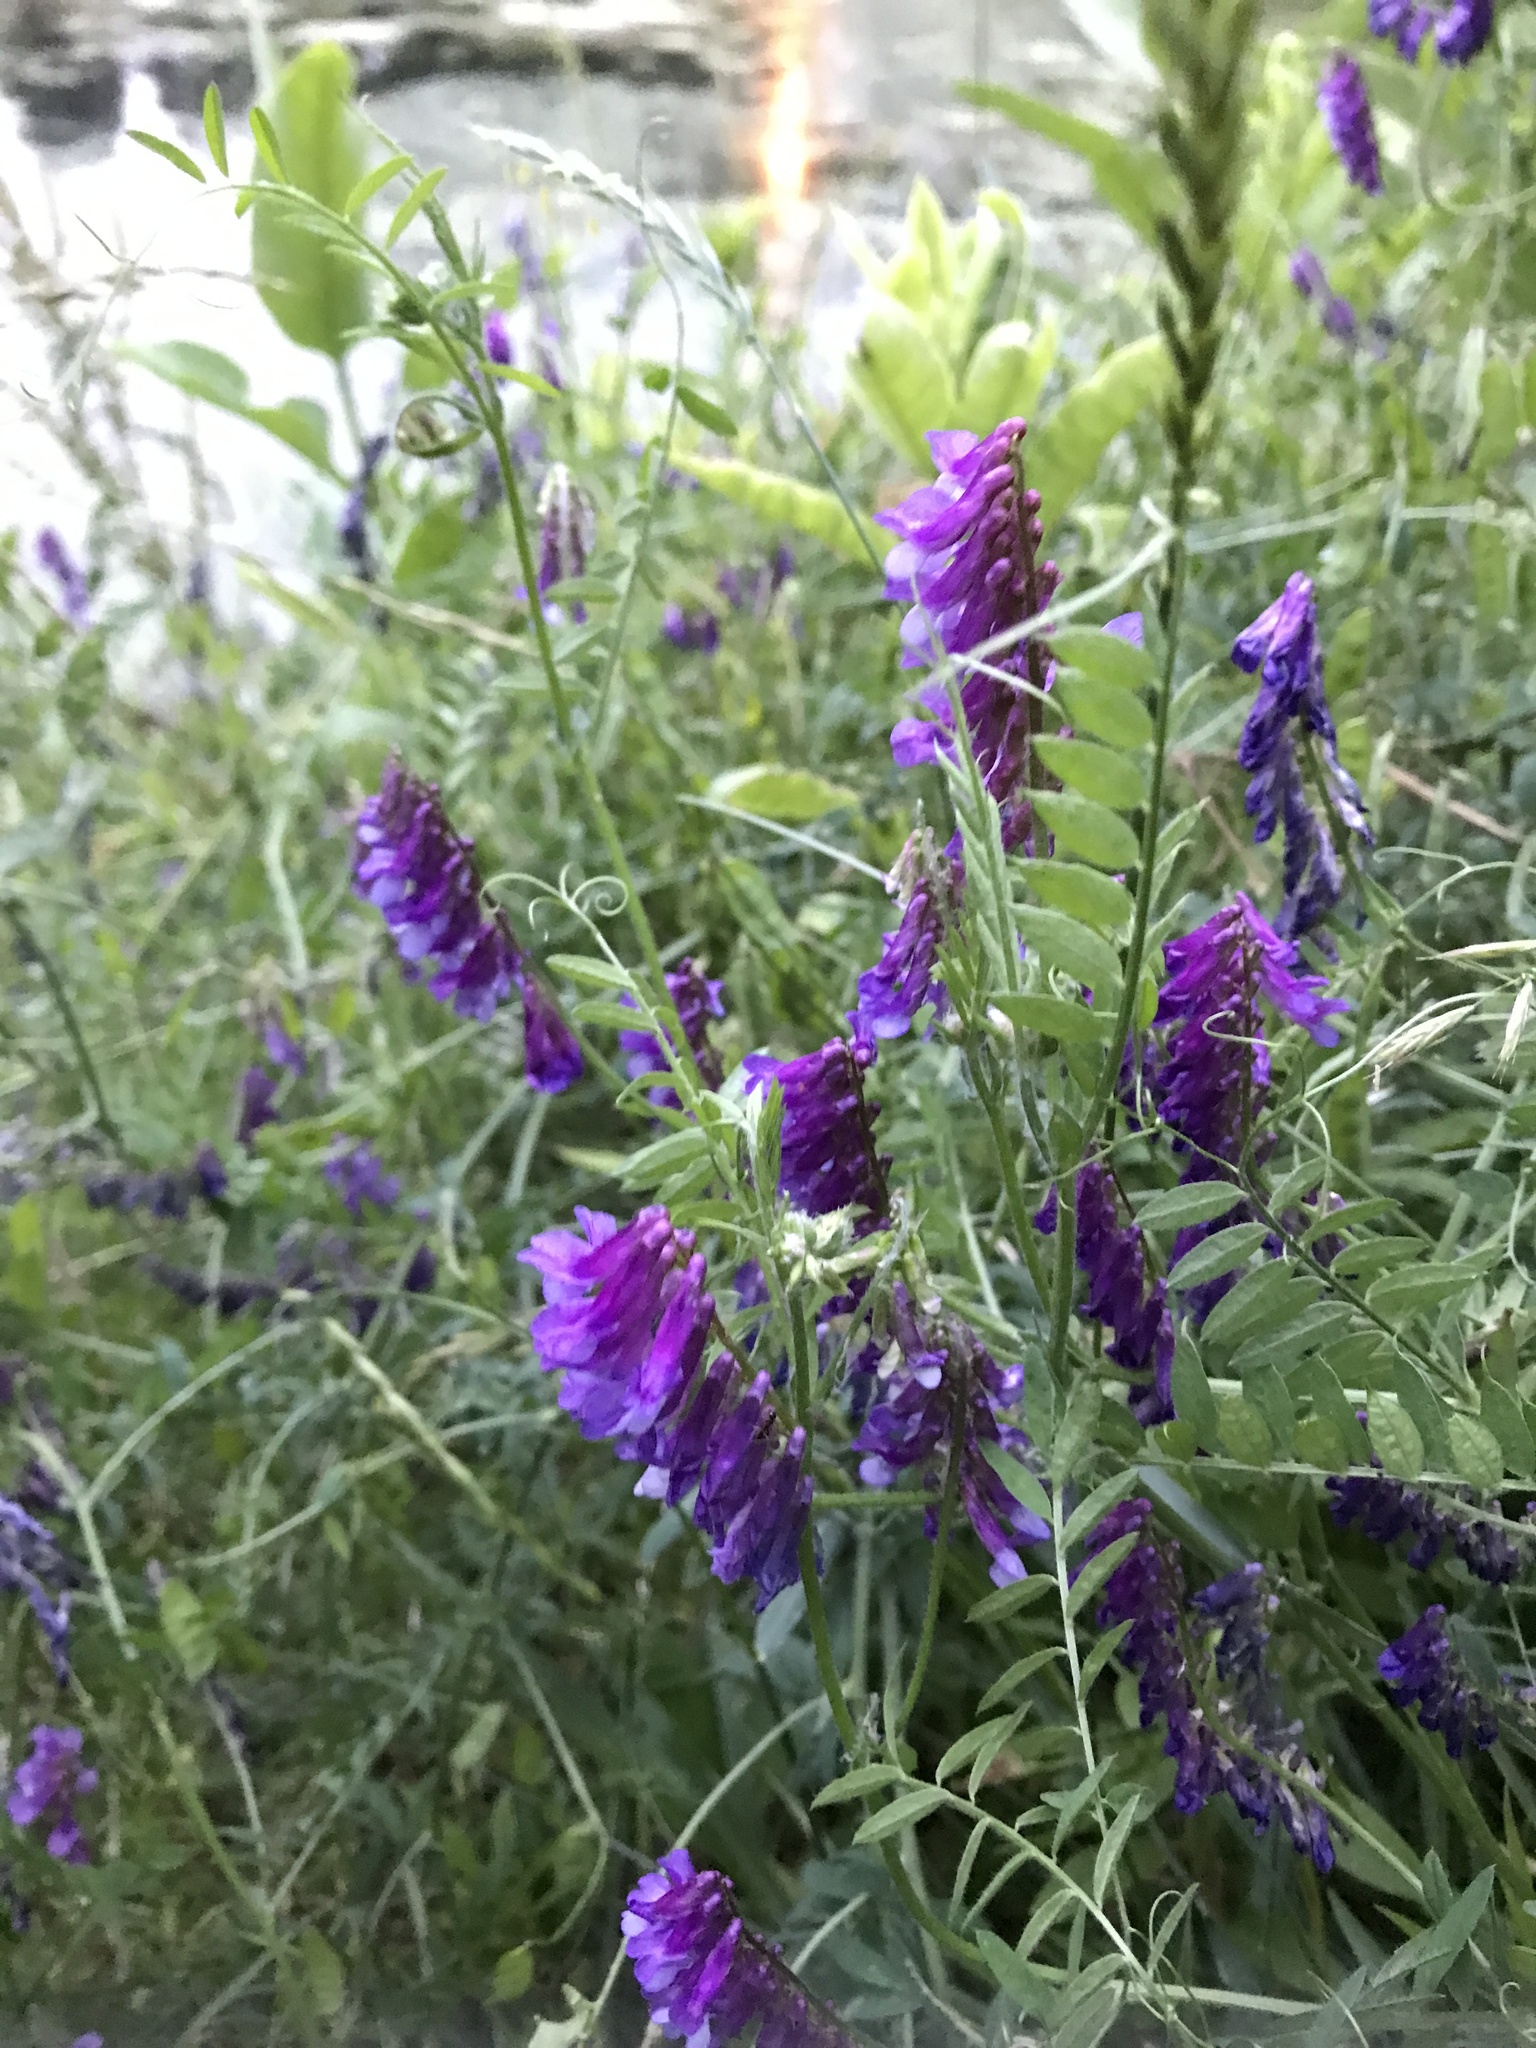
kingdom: Plantae
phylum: Tracheophyta
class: Magnoliopsida
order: Fabales
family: Fabaceae
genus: Vicia
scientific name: Vicia villosa
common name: Fodder vetch
